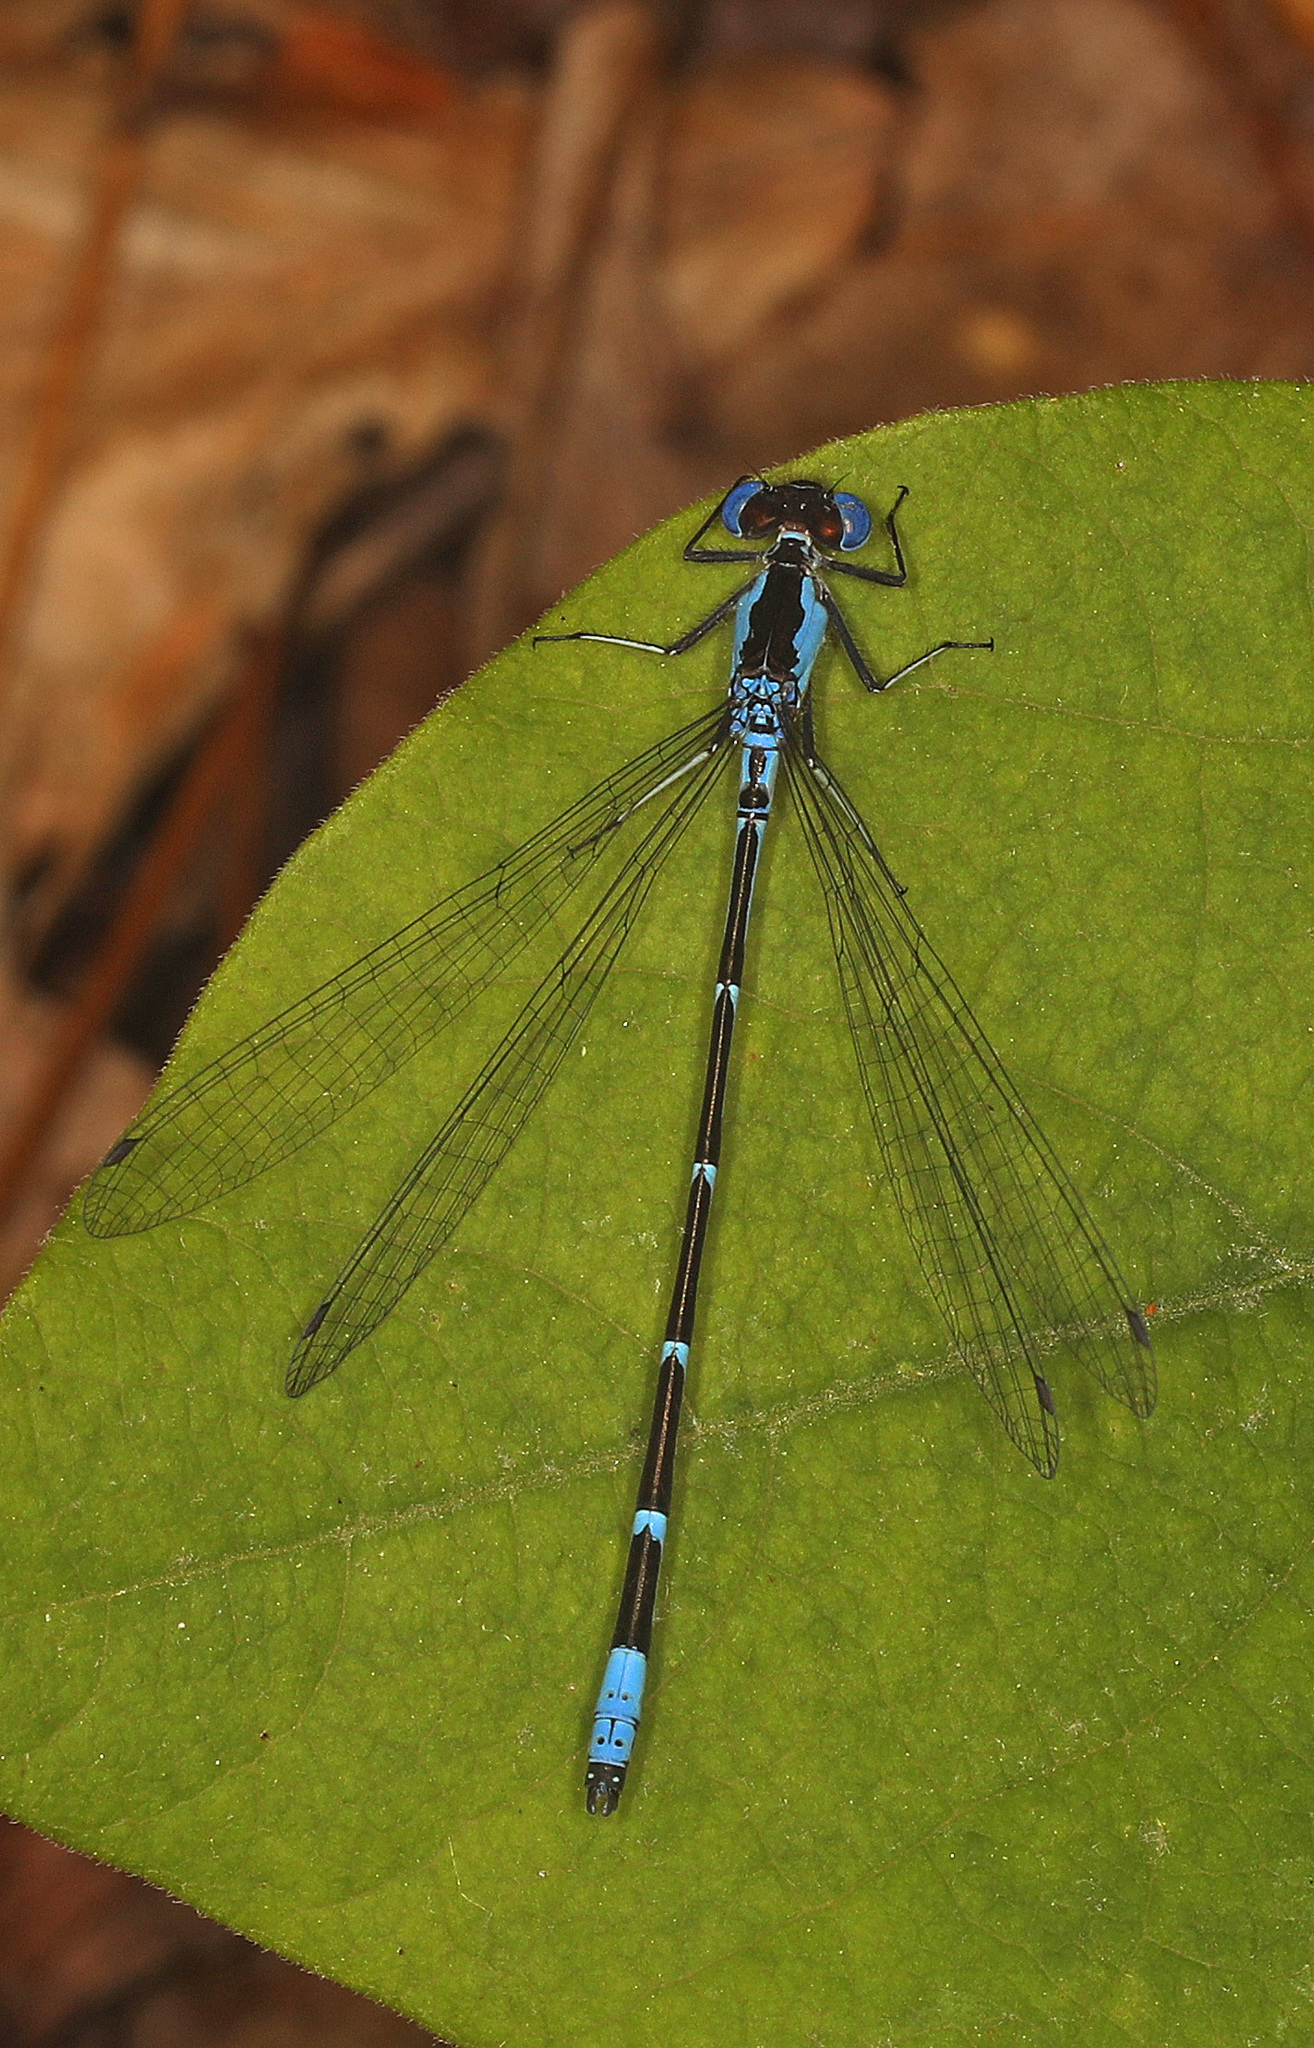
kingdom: Animalia
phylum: Arthropoda
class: Insecta
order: Odonata
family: Coenagrionidae
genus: Chromagrion
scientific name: Chromagrion conditum
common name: Aurora damsel
